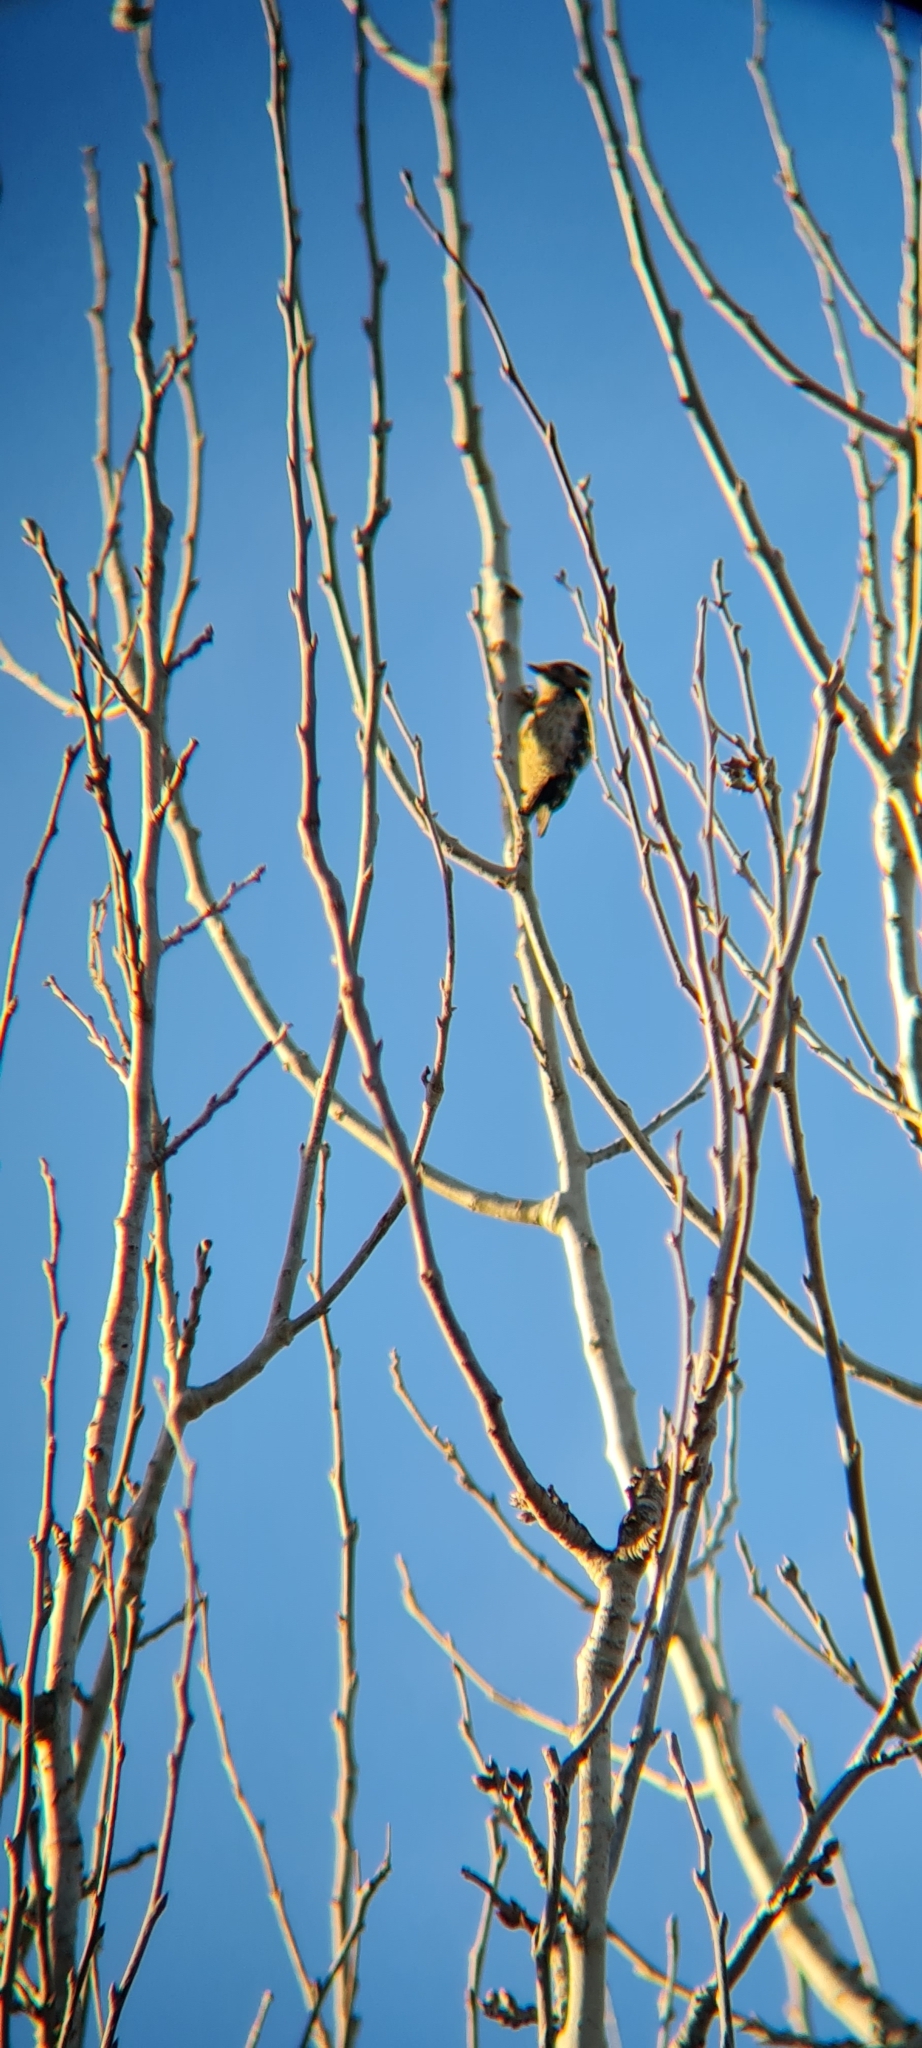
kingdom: Animalia
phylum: Chordata
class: Aves
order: Piciformes
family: Picidae
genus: Dryobates
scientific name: Dryobates minor
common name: Lesser spotted woodpecker
